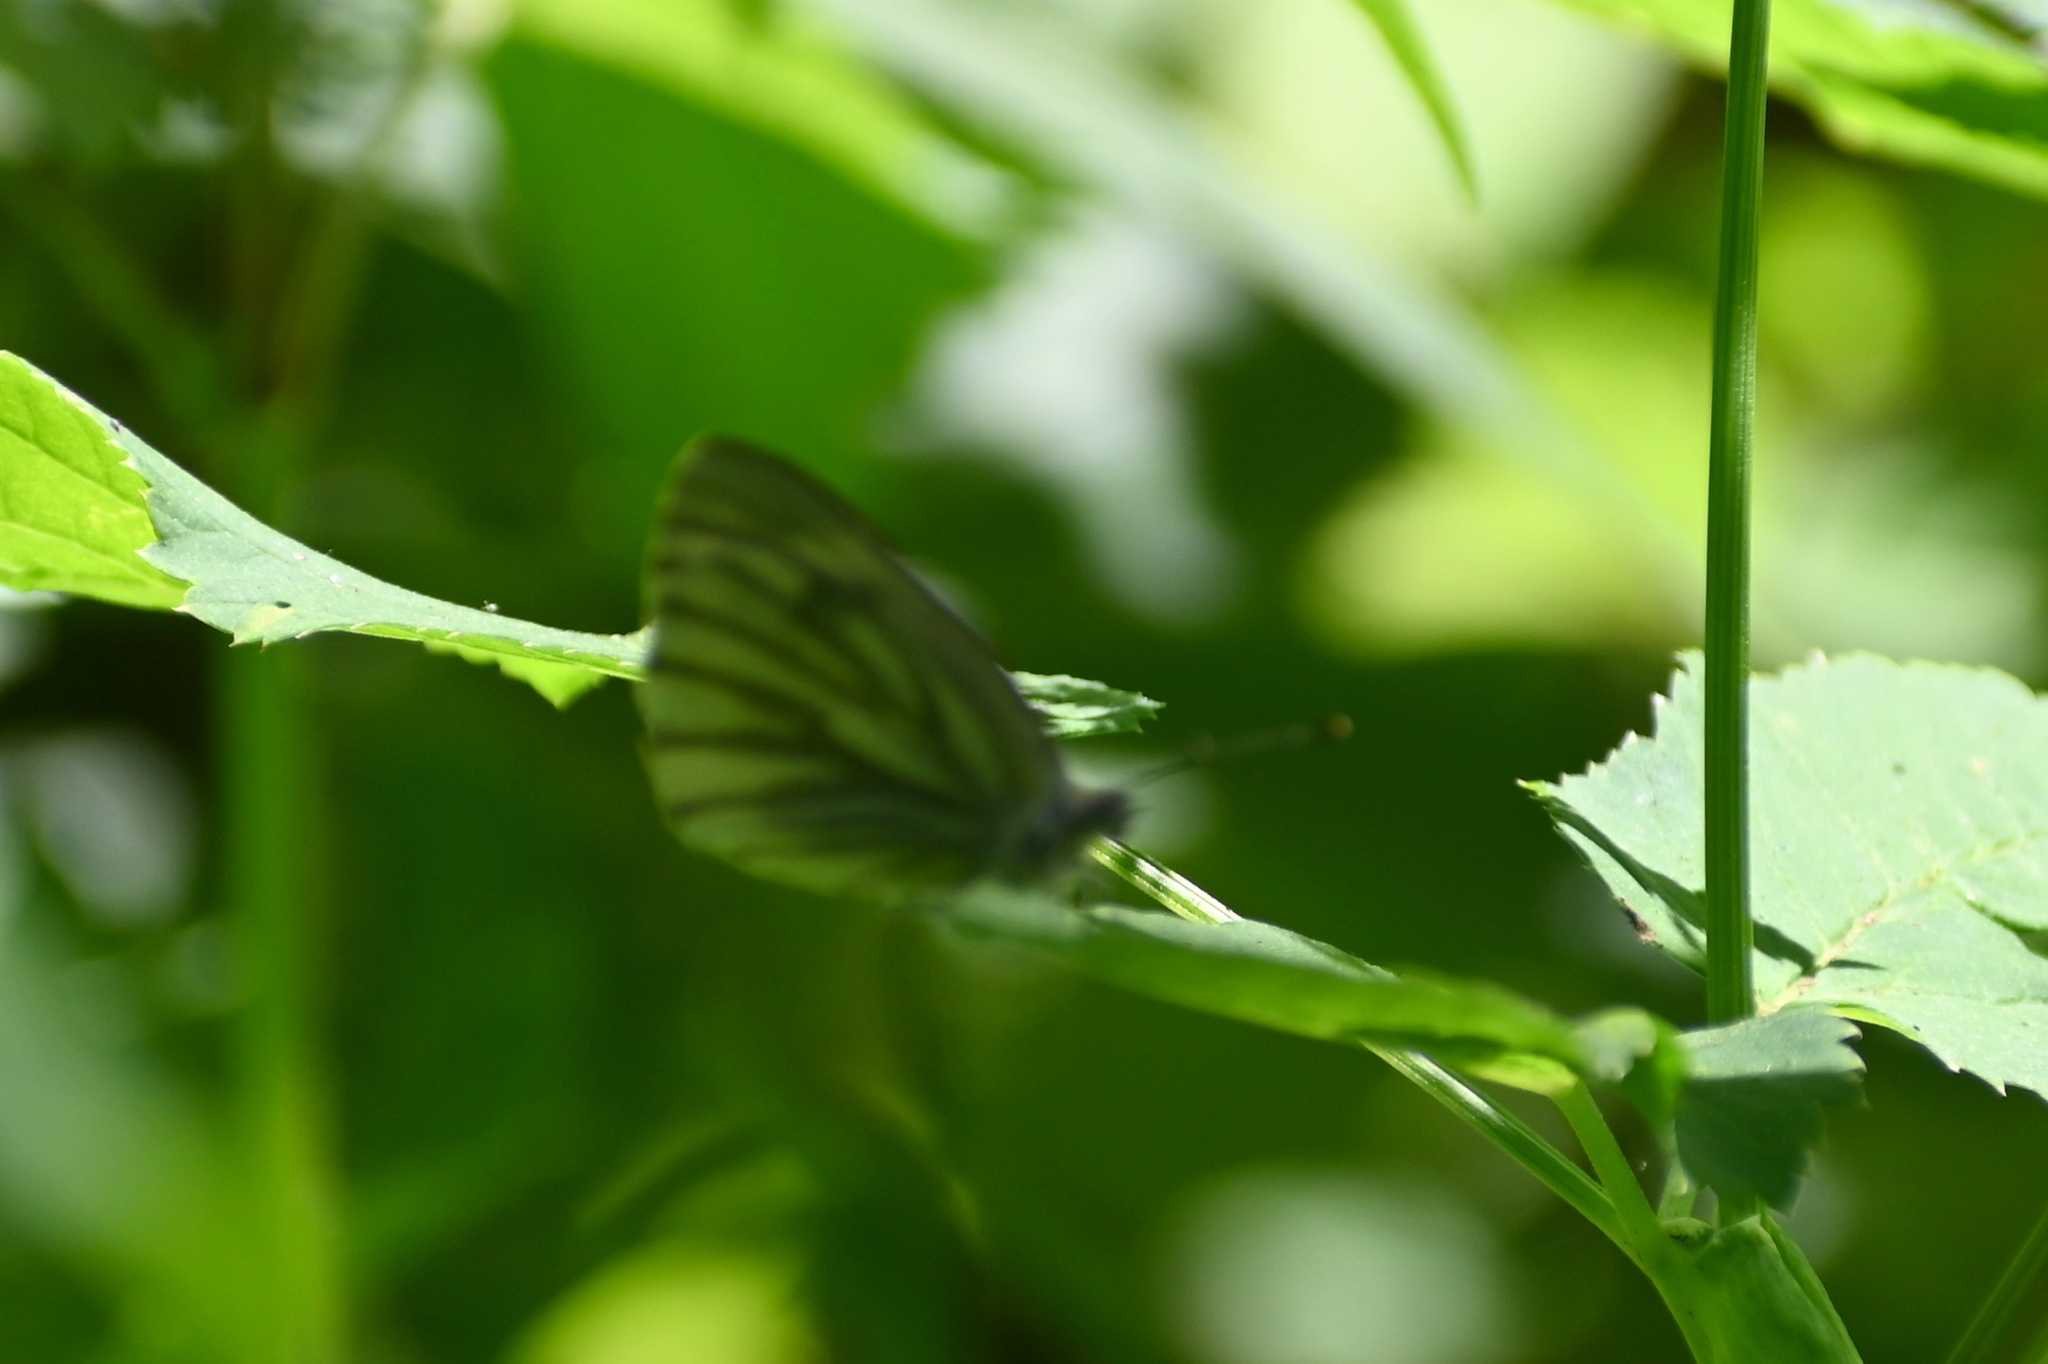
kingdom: Animalia
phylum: Arthropoda
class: Insecta
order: Lepidoptera
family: Pieridae
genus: Pieris
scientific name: Pieris napi
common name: Green-veined white
